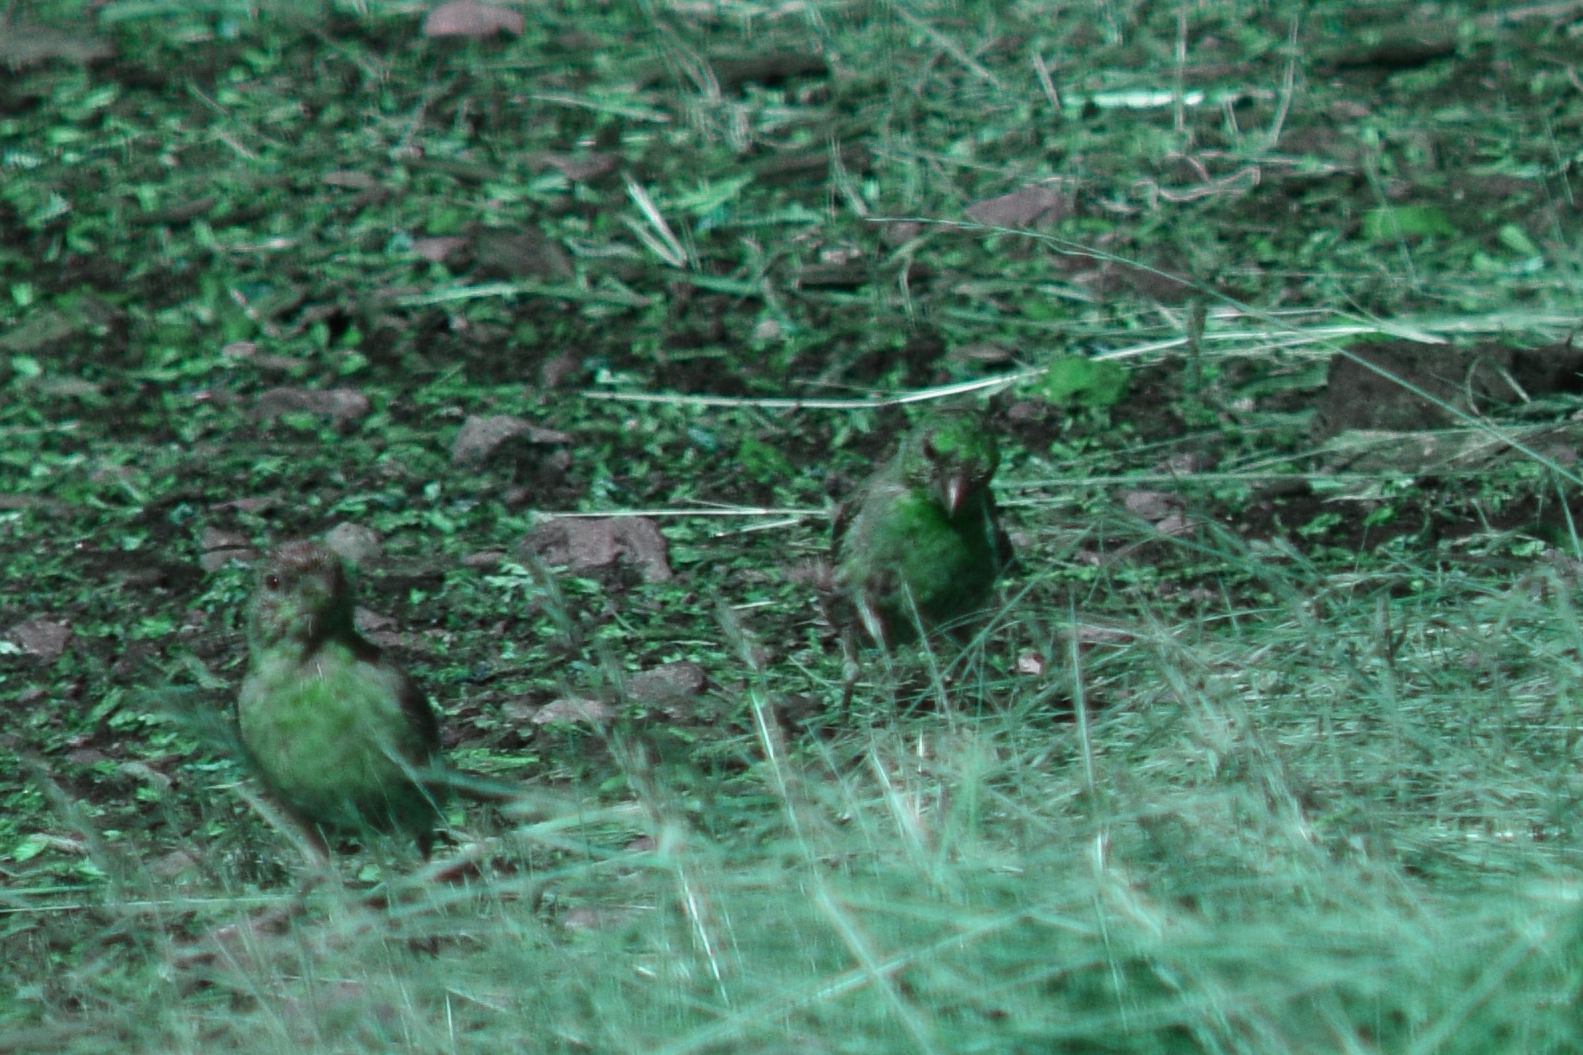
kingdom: Animalia
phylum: Chordata
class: Aves
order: Passeriformes
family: Fringillidae
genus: Haemorhous
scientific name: Haemorhous mexicanus
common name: House finch
